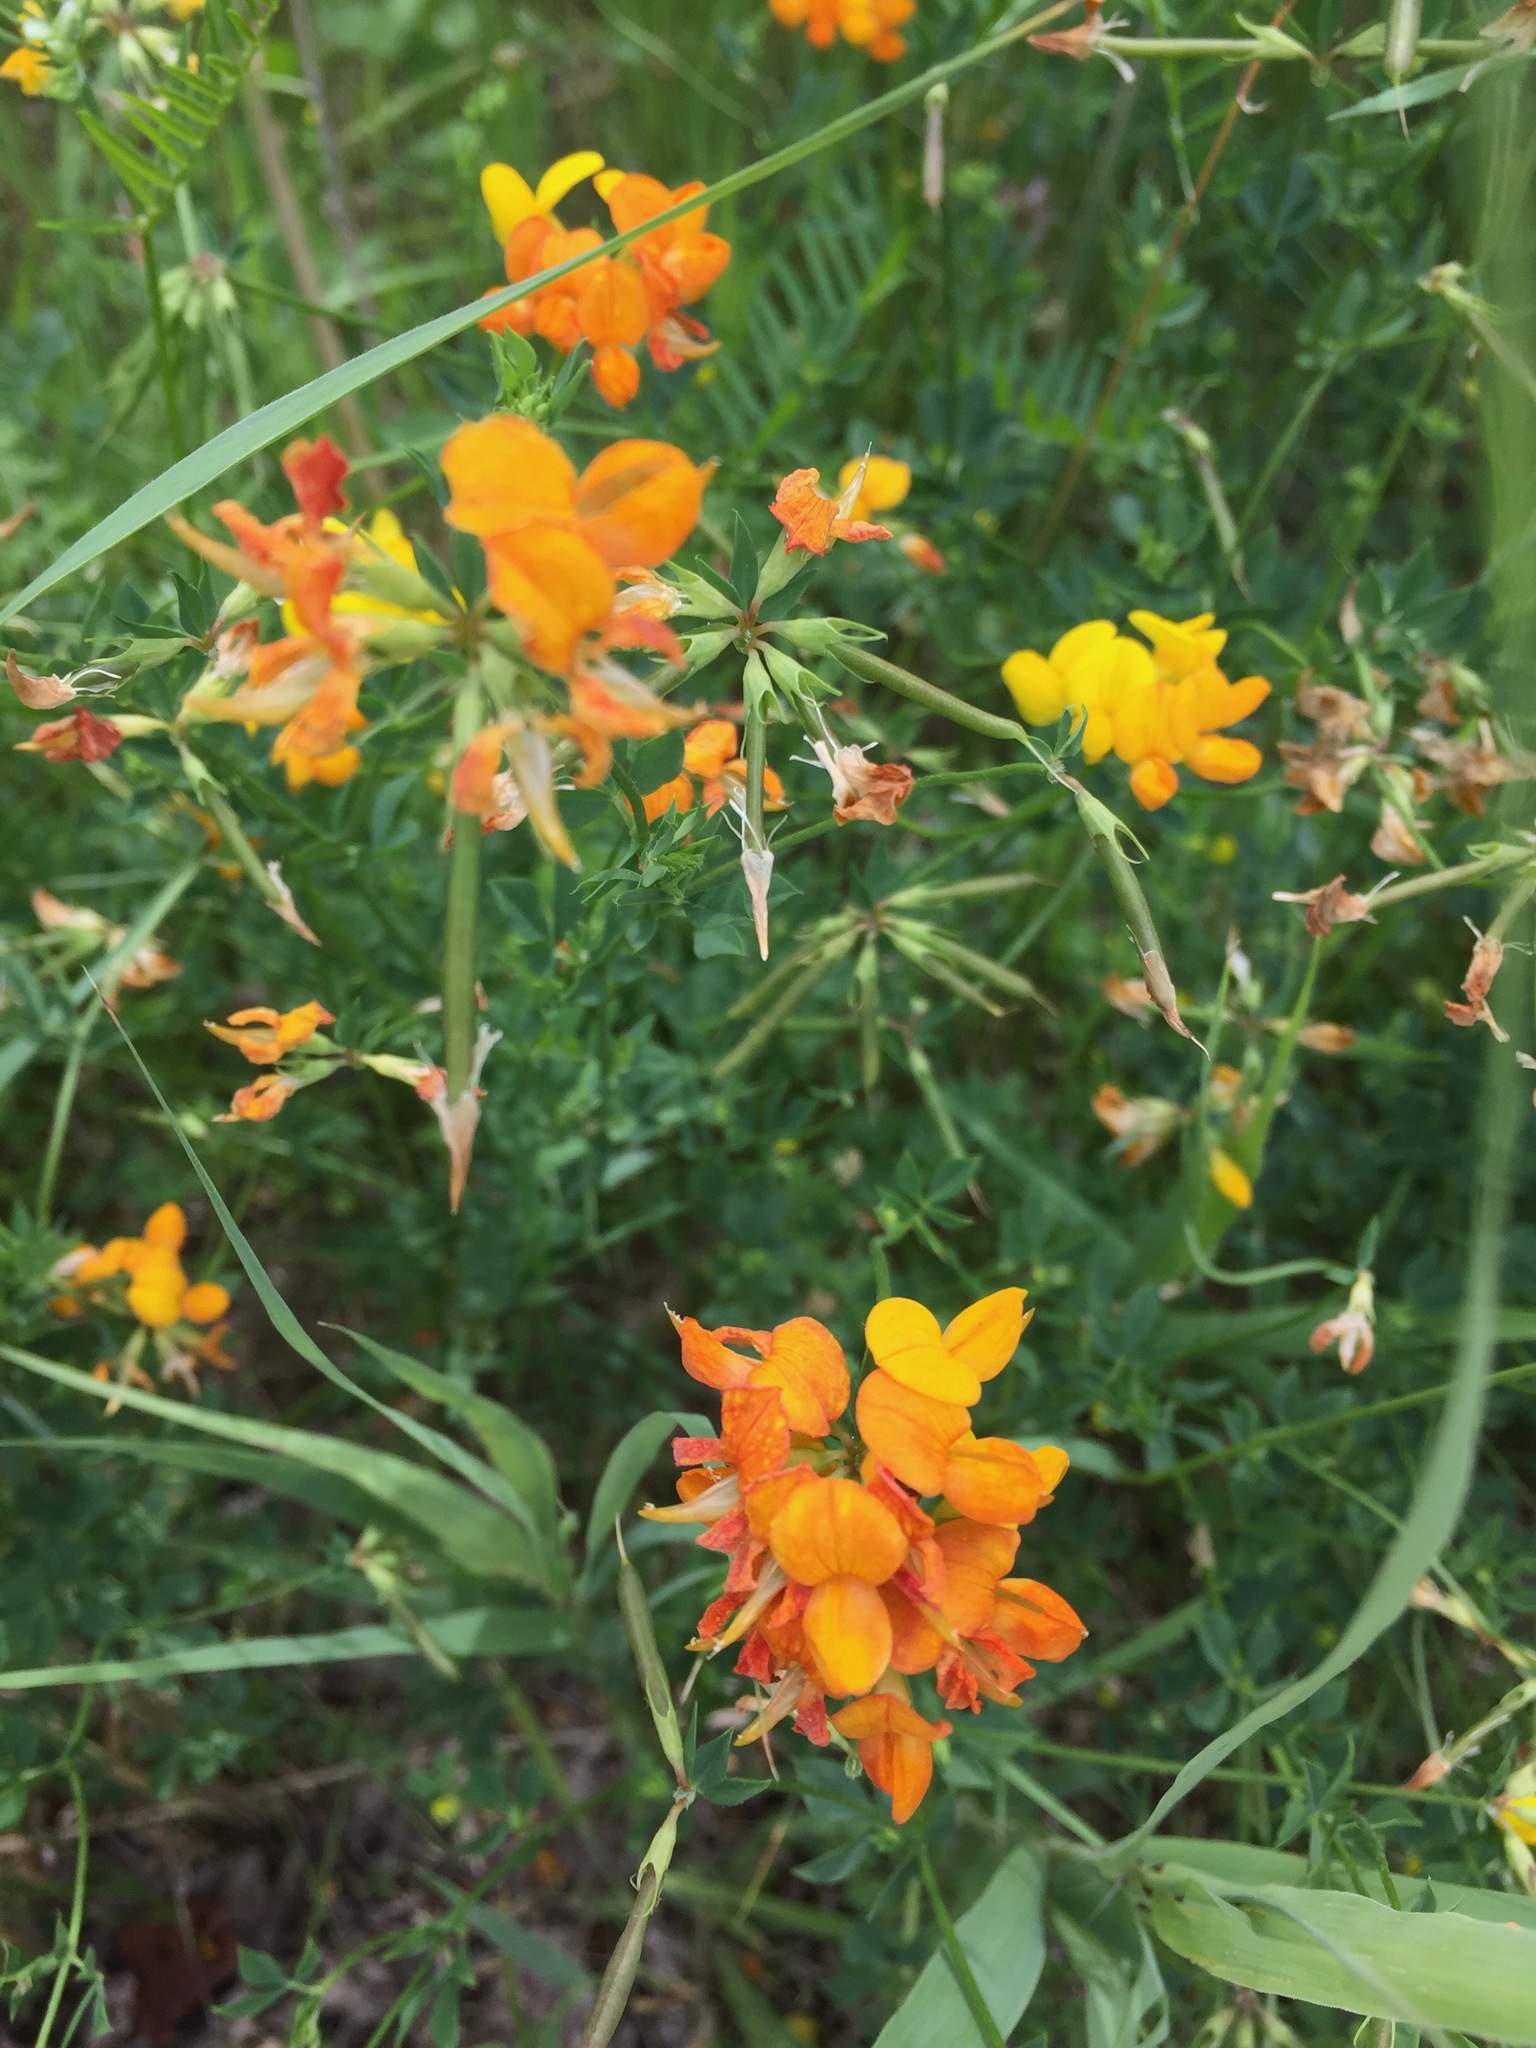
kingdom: Plantae
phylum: Tracheophyta
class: Magnoliopsida
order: Fabales
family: Fabaceae
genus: Lotus
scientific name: Lotus corniculatus
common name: Common bird's-foot-trefoil
